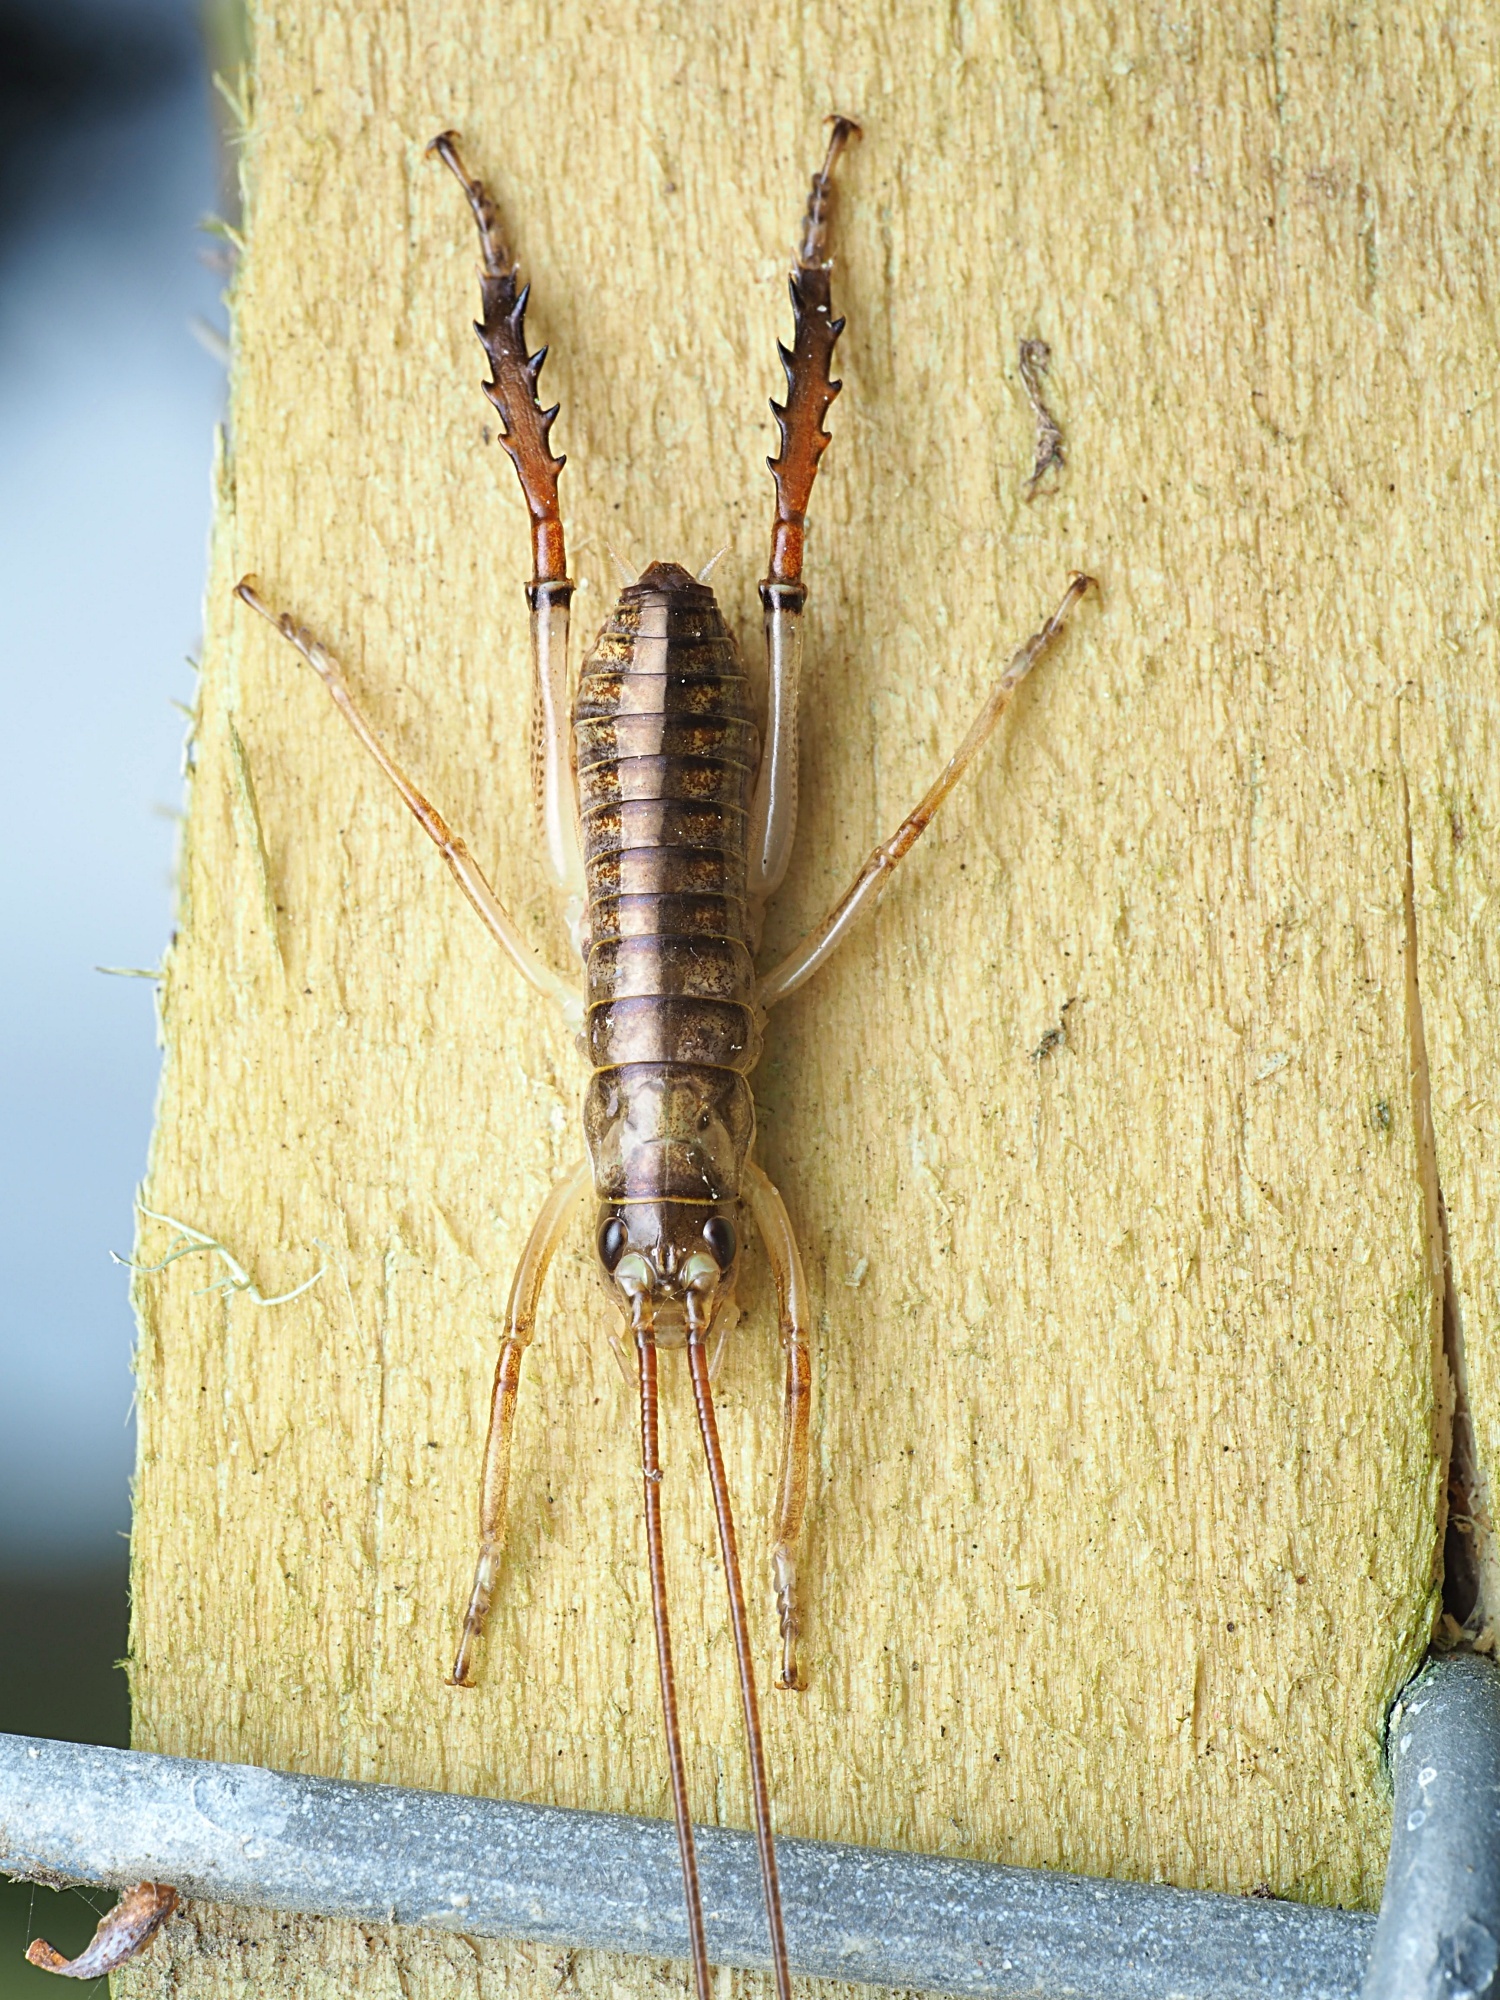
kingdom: Animalia
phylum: Arthropoda
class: Insecta
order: Orthoptera
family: Anostostomatidae
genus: Hemideina
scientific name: Hemideina thoracica
